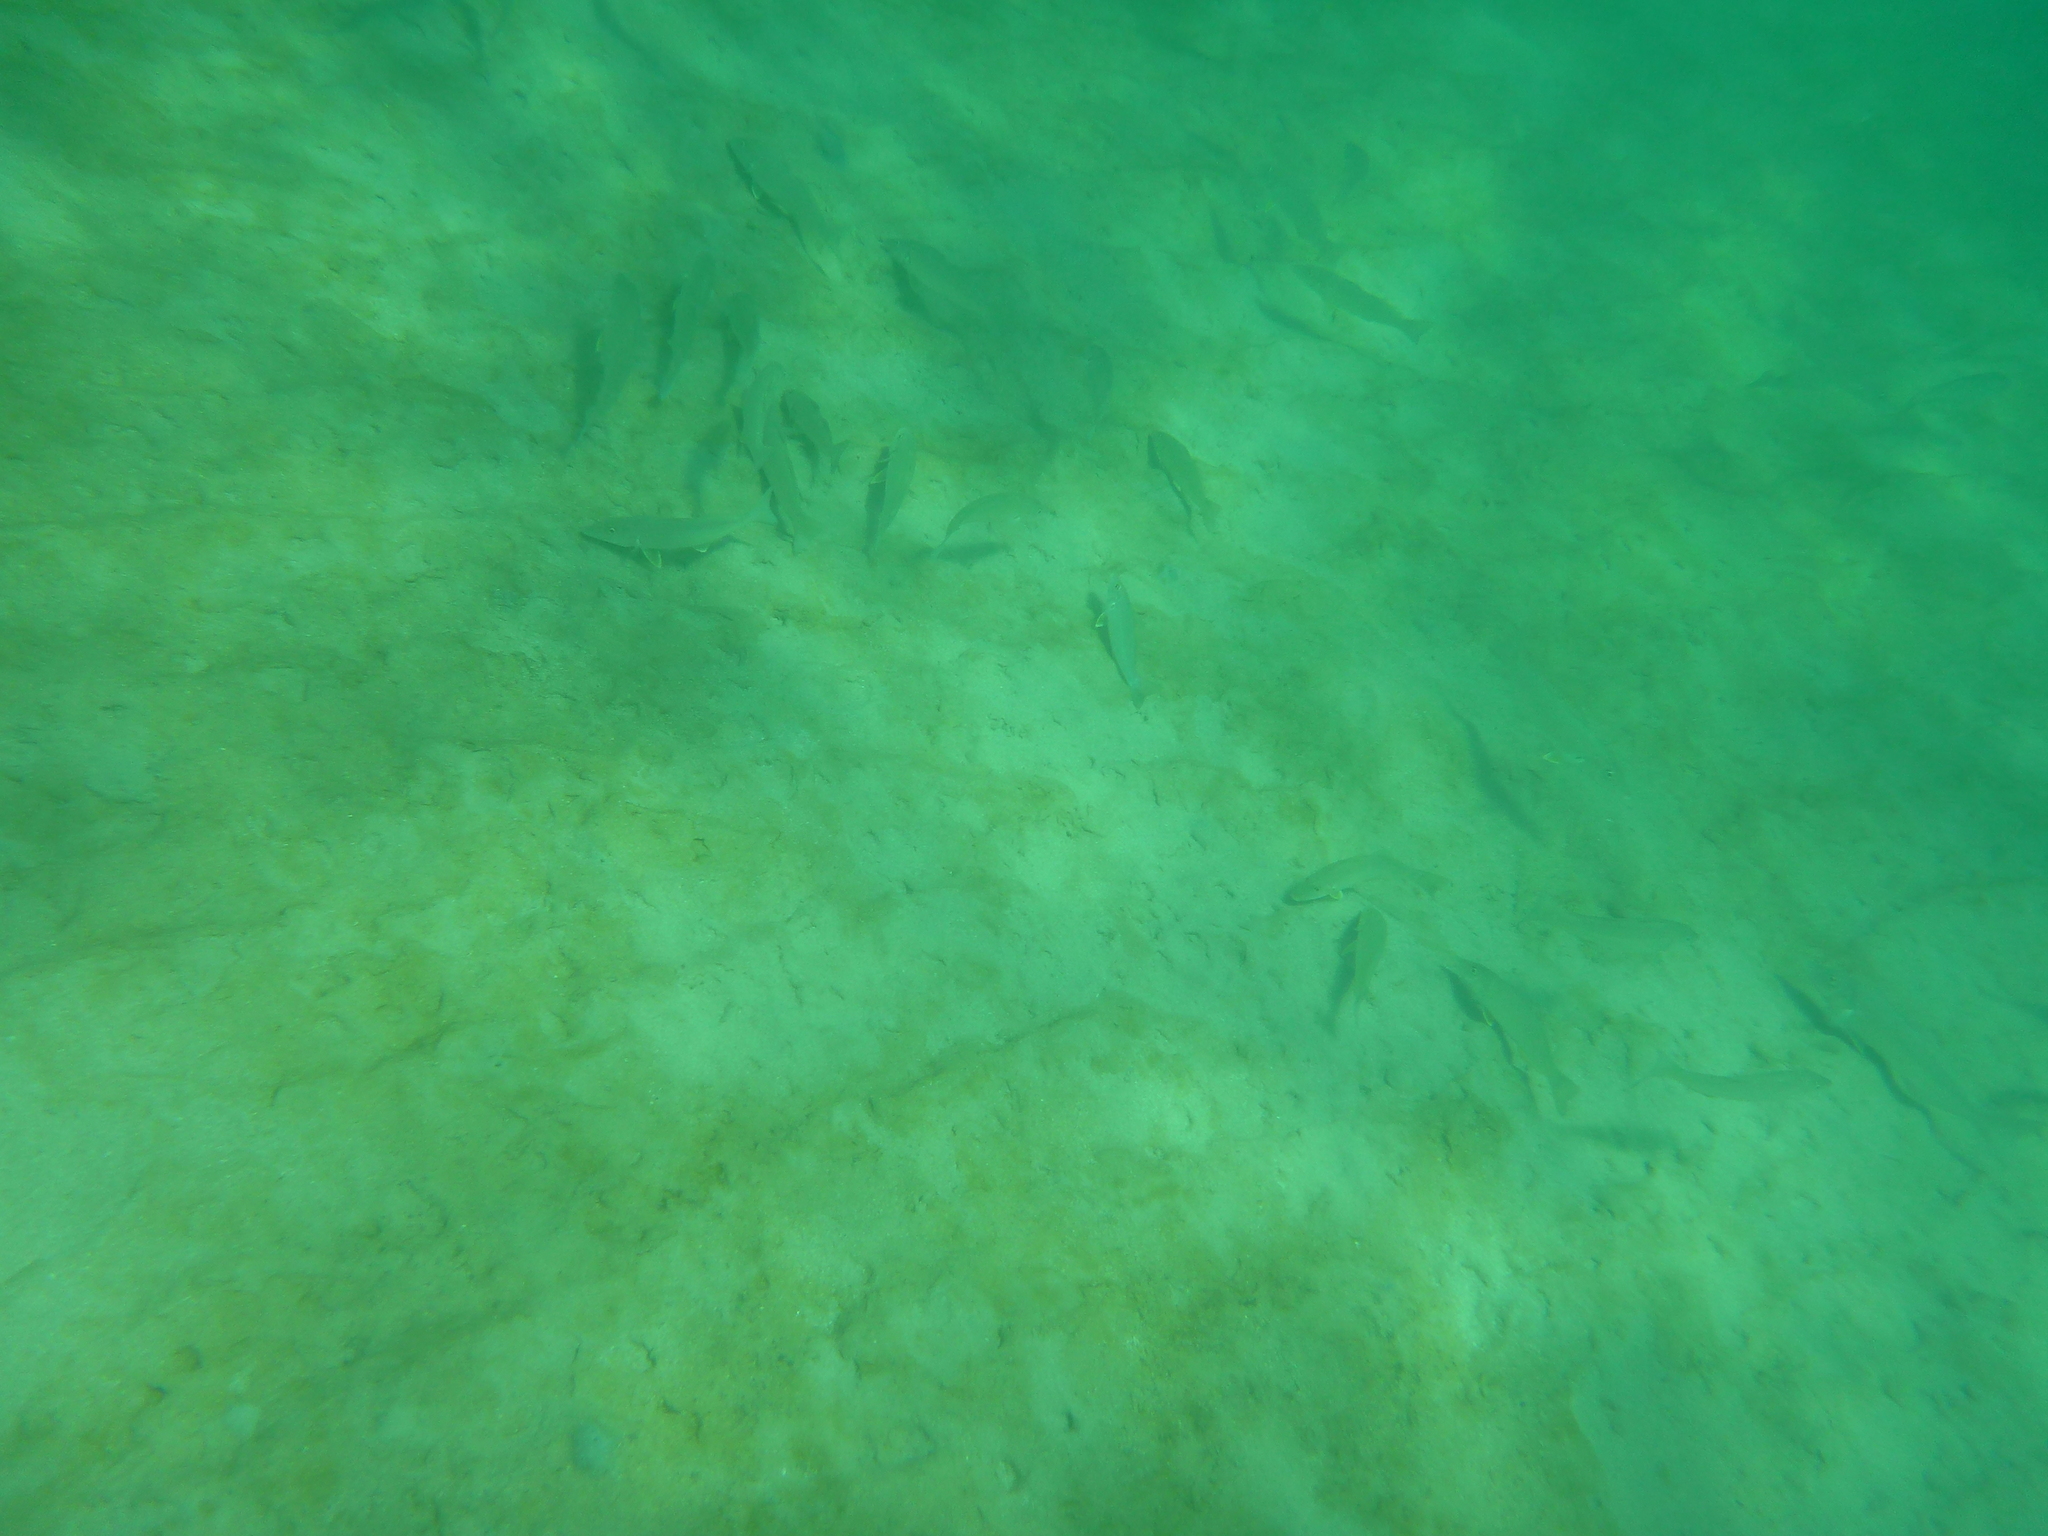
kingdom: Animalia
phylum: Chordata
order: Perciformes
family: Sillaginidae
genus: Sillago
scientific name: Sillago ciliata
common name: Sand sillago
